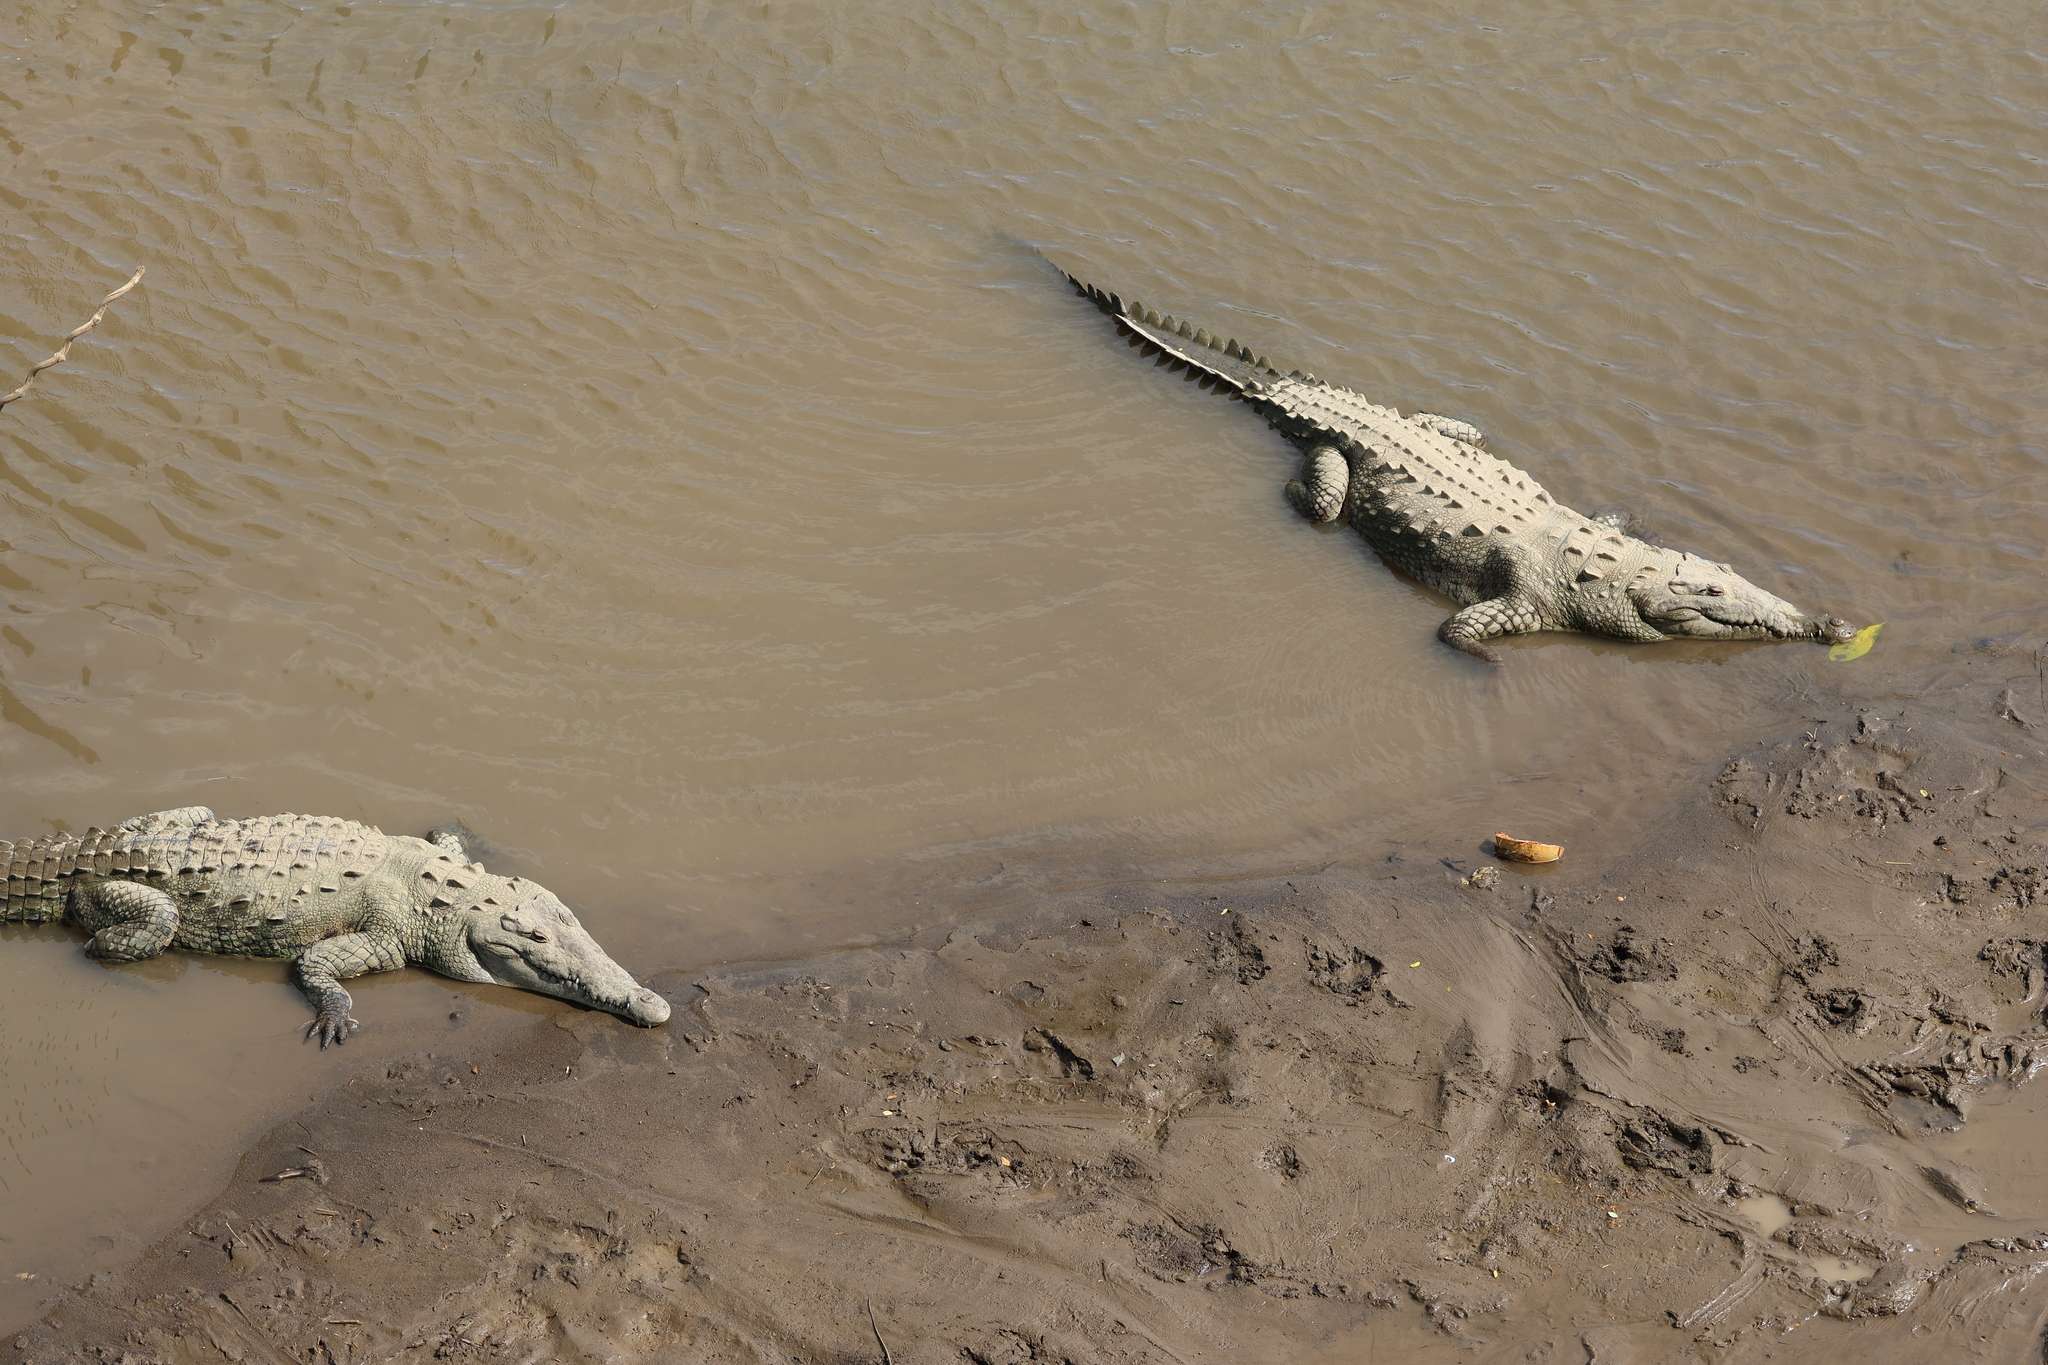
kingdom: Animalia
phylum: Chordata
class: Crocodylia
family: Crocodylidae
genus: Crocodylus
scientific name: Crocodylus acutus
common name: American crocodile
